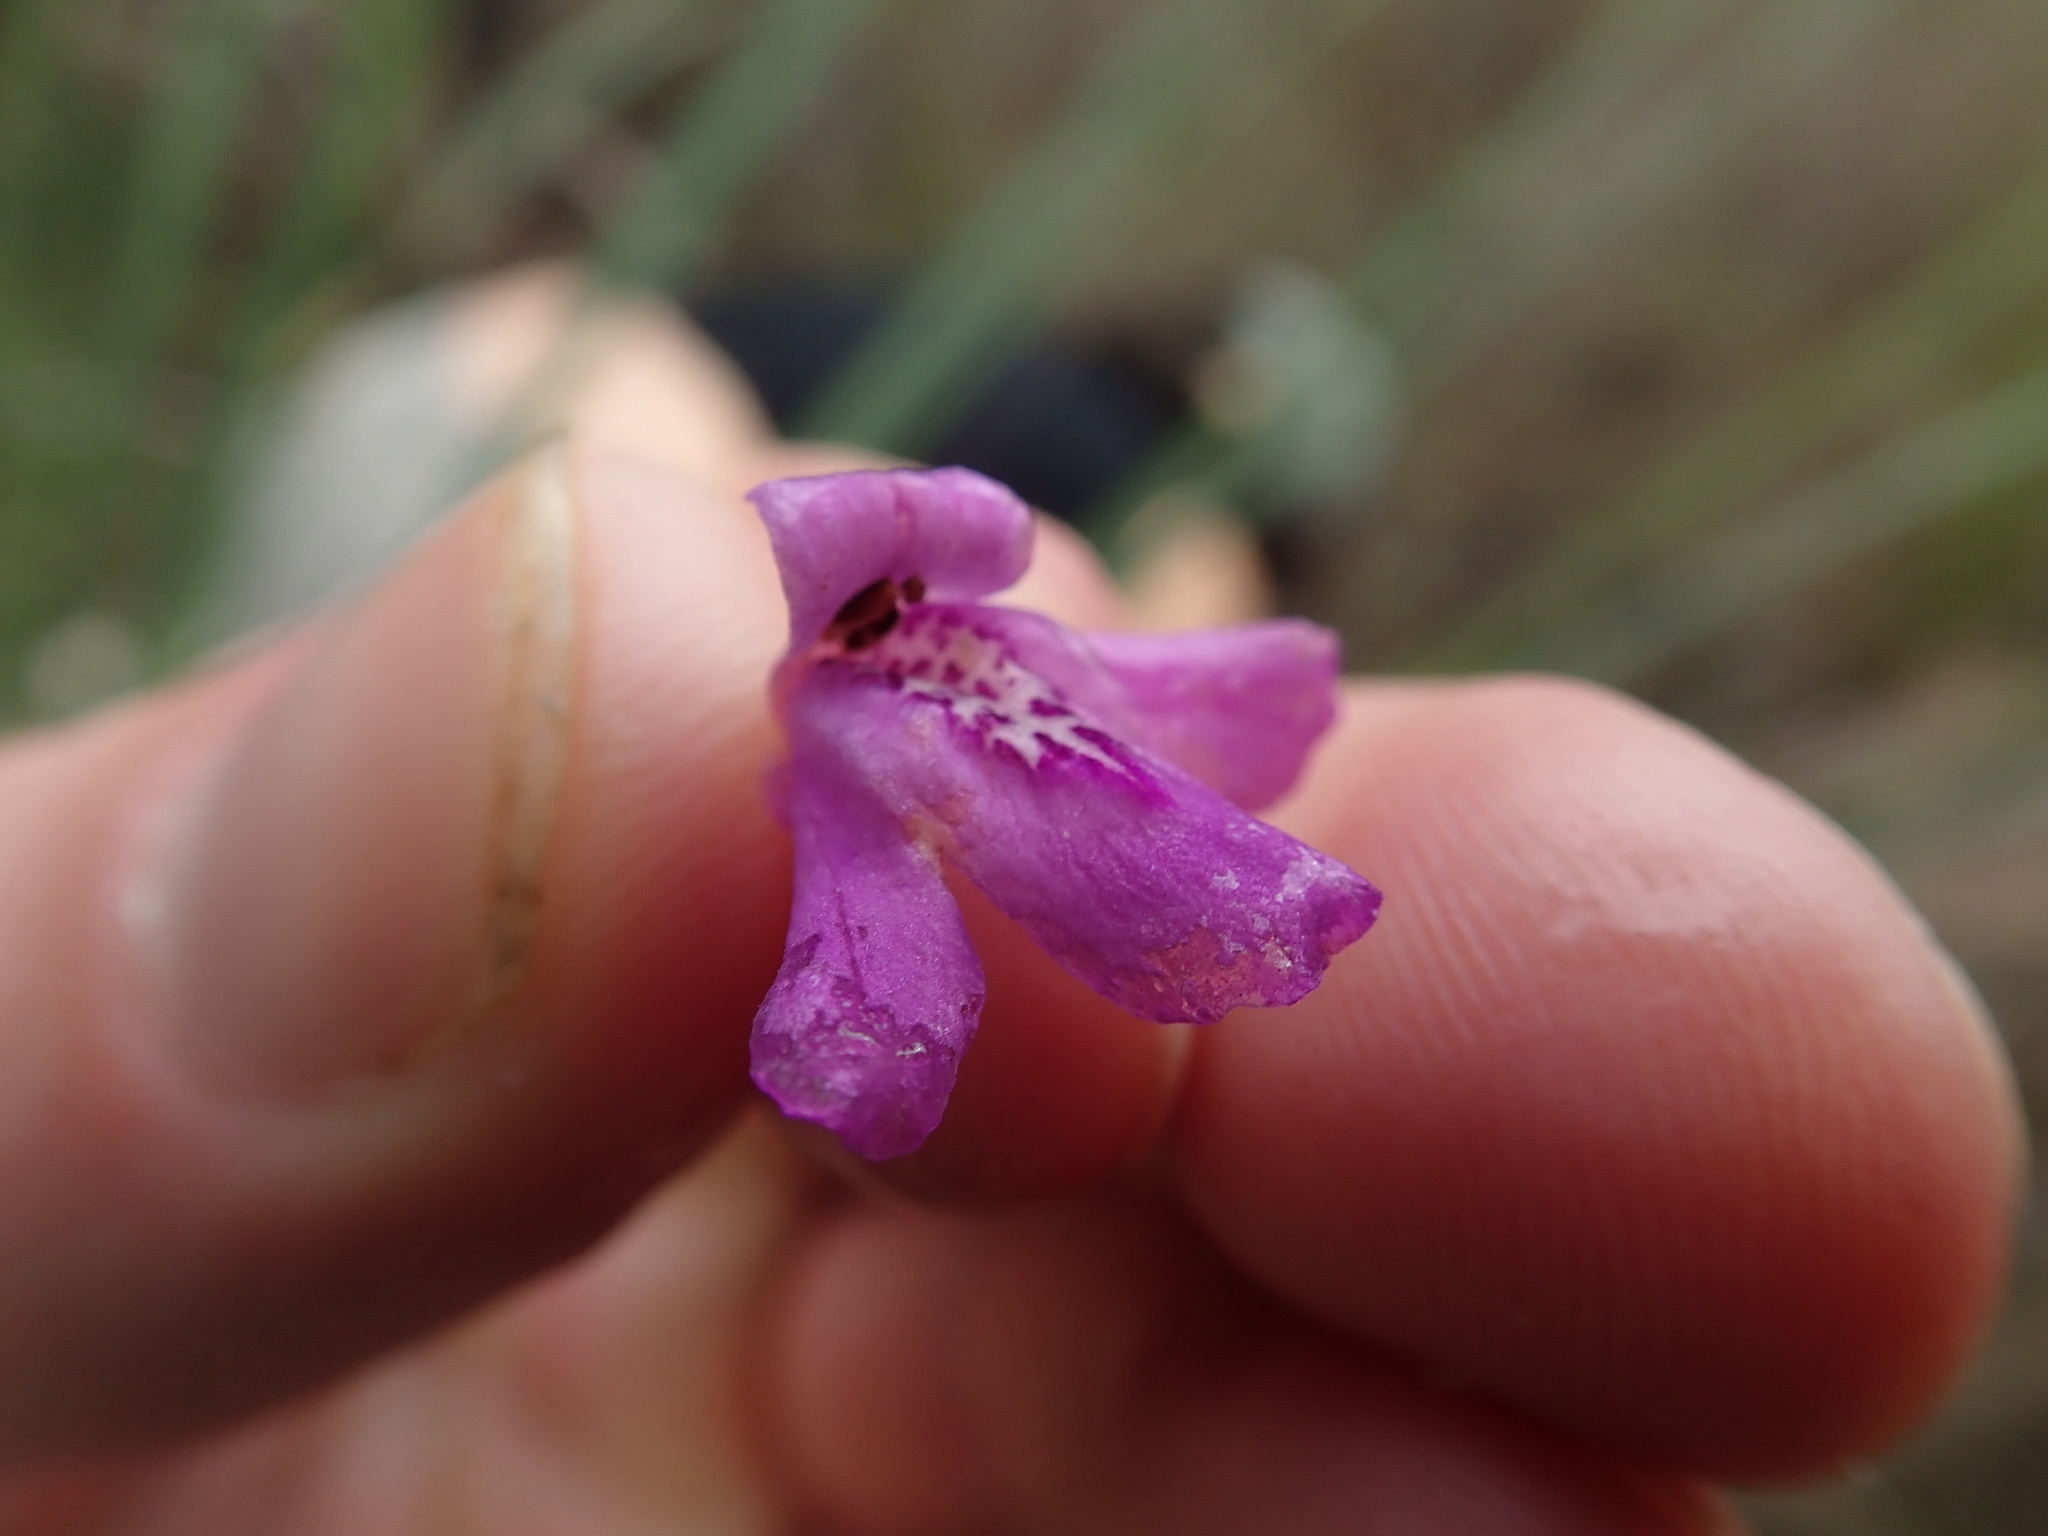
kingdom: Plantae
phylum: Tracheophyta
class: Magnoliopsida
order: Lamiales
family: Acanthaceae
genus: Dianthera
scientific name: Dianthera angusta
